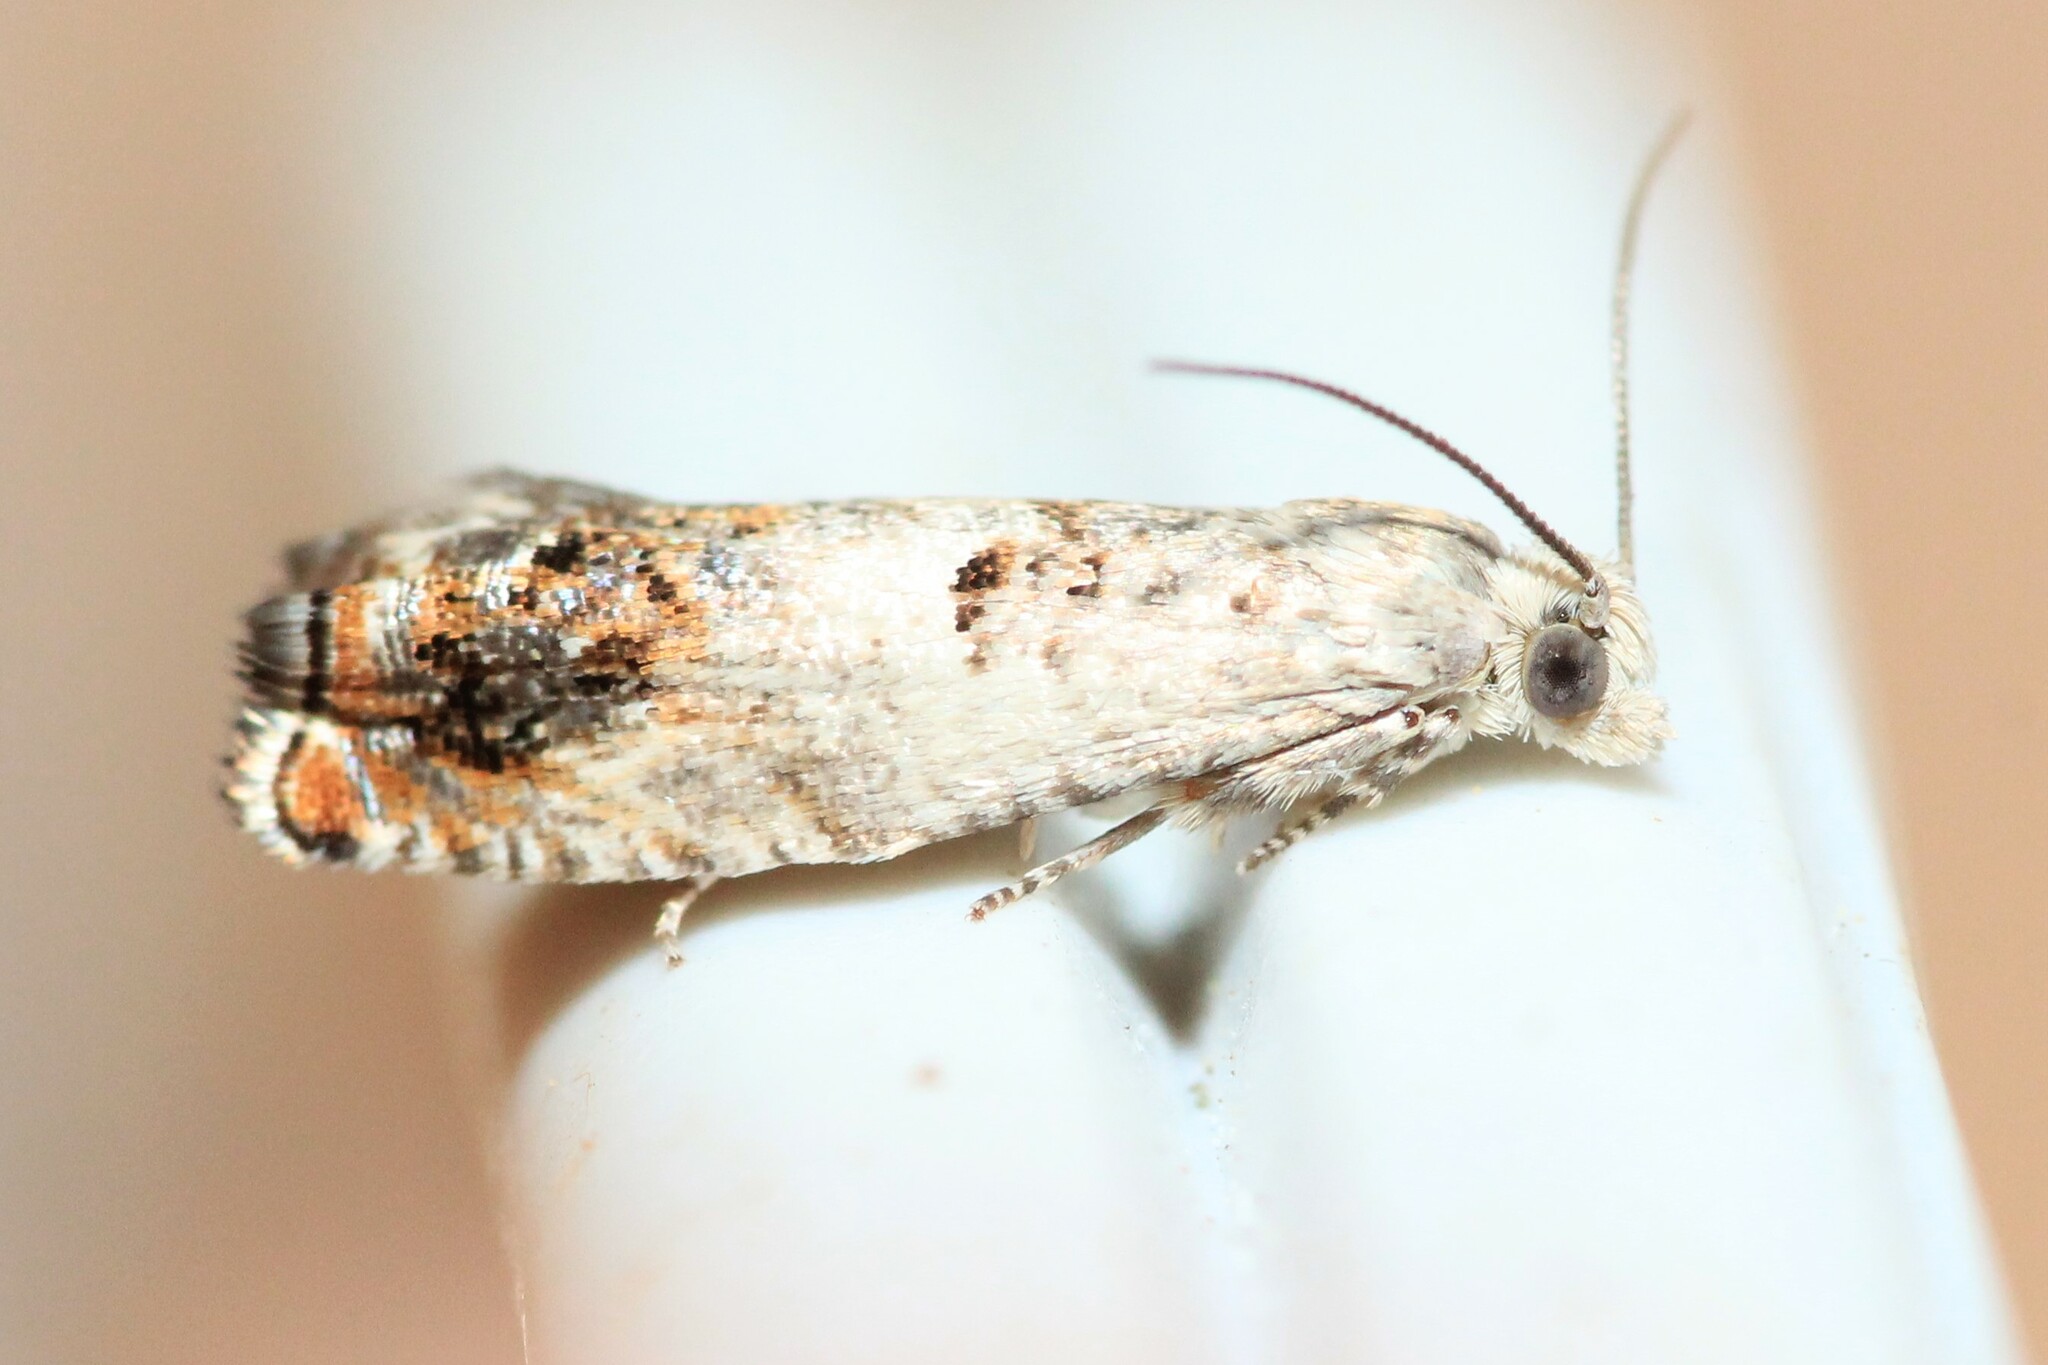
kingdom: Animalia
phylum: Arthropoda
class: Insecta
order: Lepidoptera
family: Tortricidae
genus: Epinotia
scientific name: Epinotia rectiplicana
